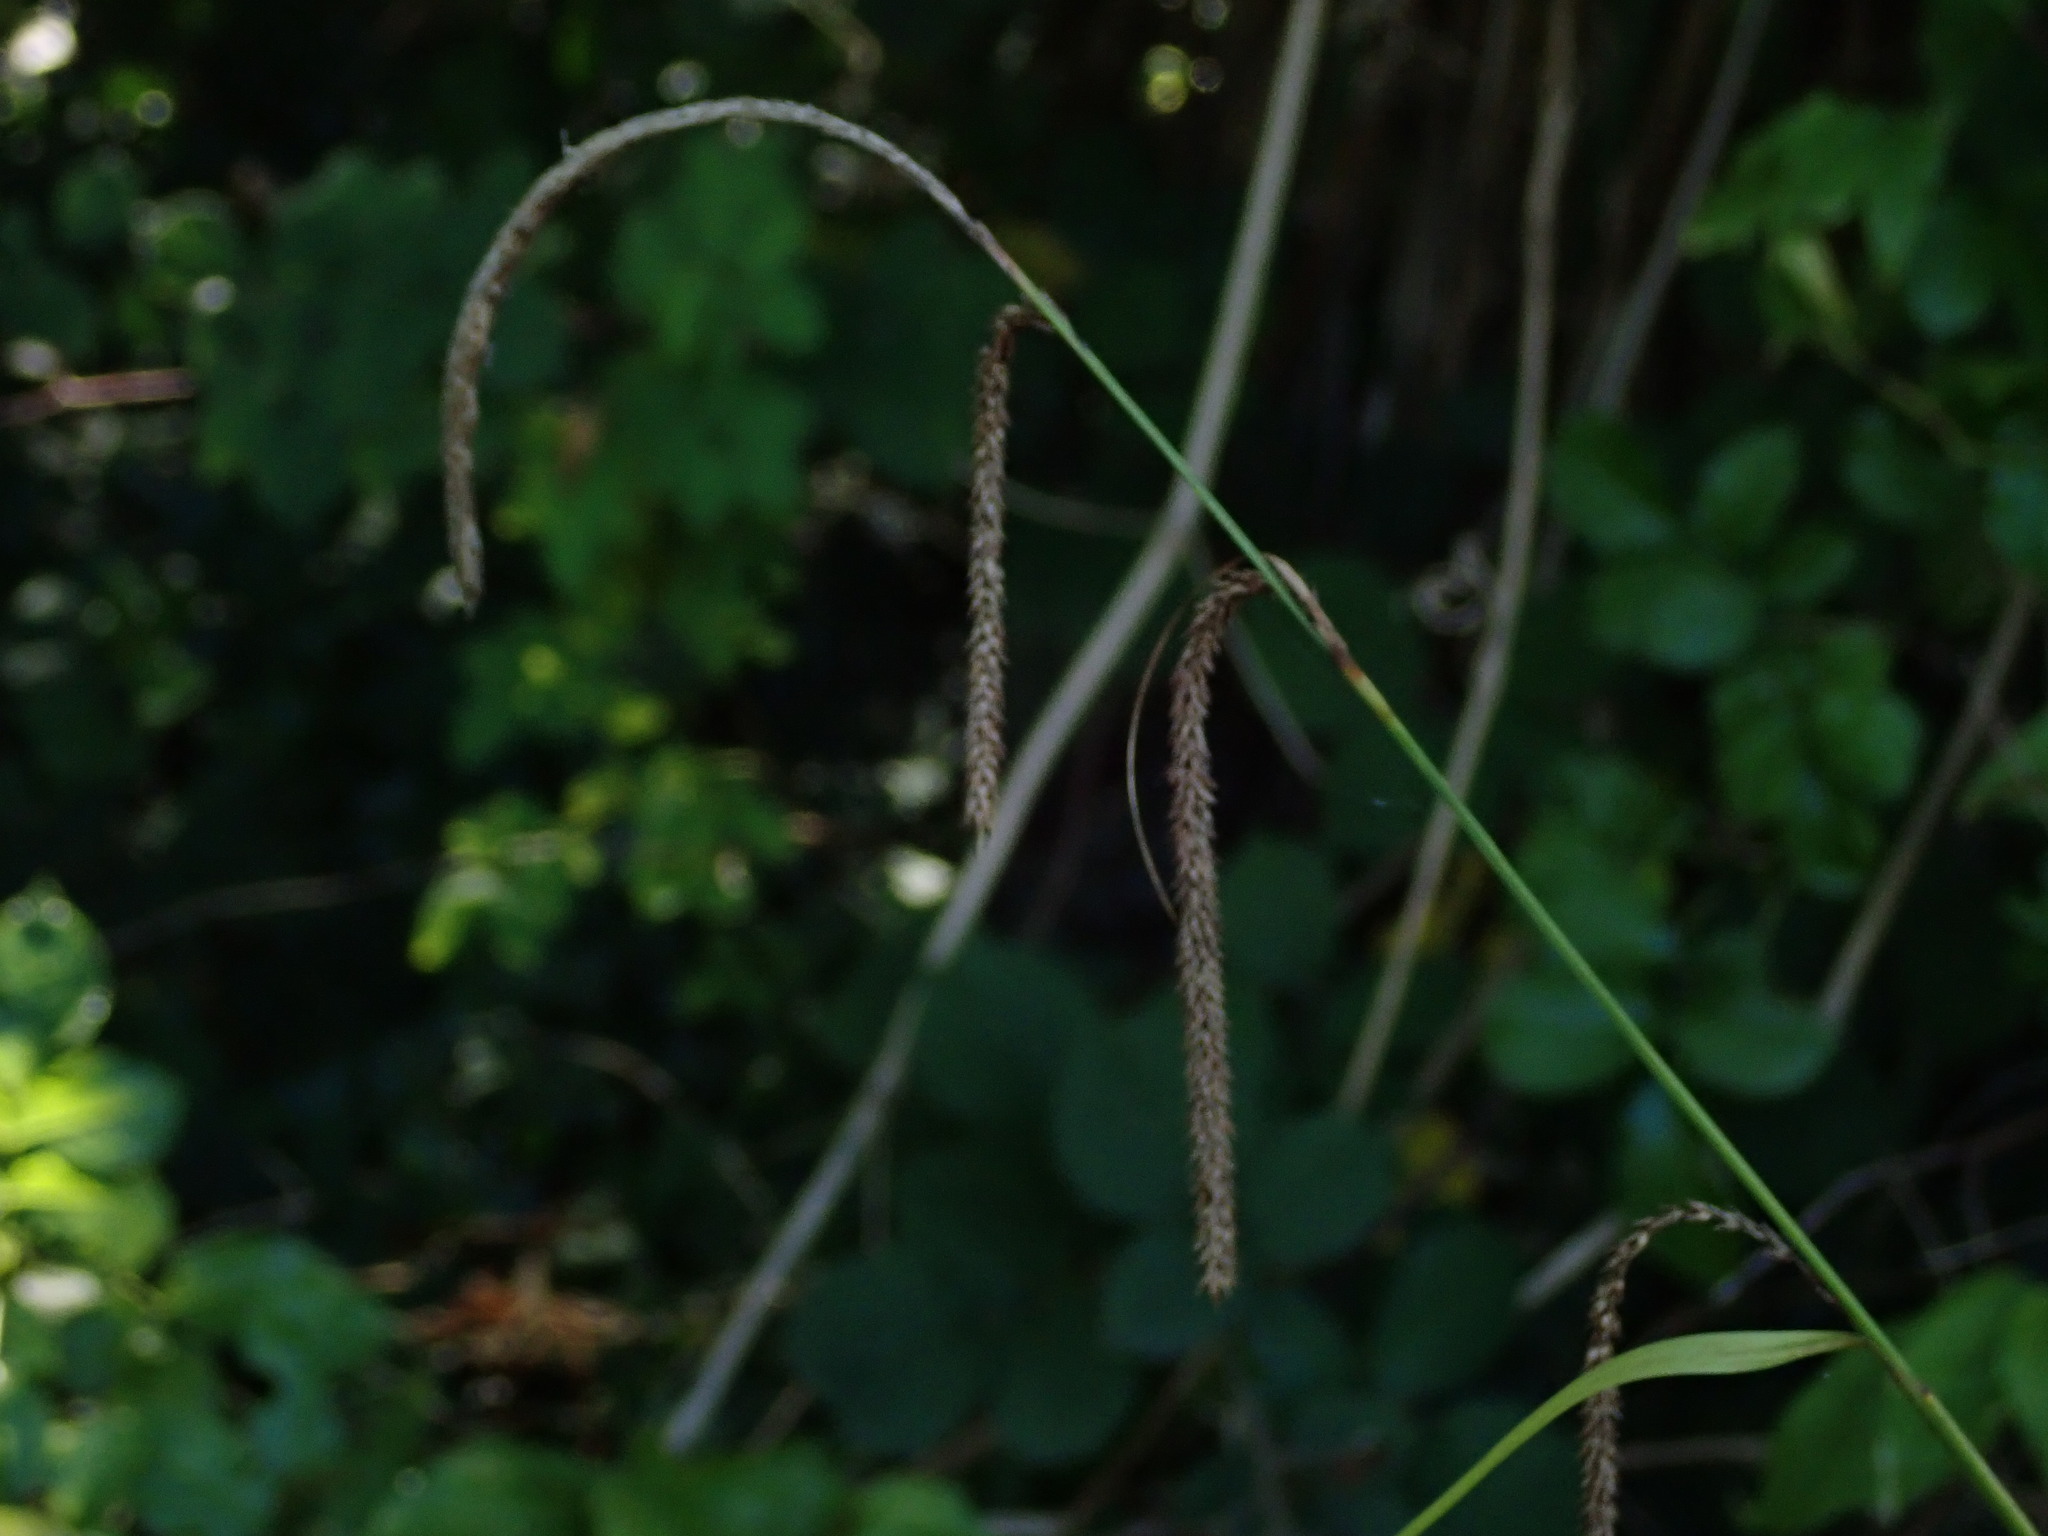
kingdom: Plantae
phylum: Tracheophyta
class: Liliopsida
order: Poales
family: Cyperaceae
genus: Carex
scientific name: Carex pendula
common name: Pendulous sedge
